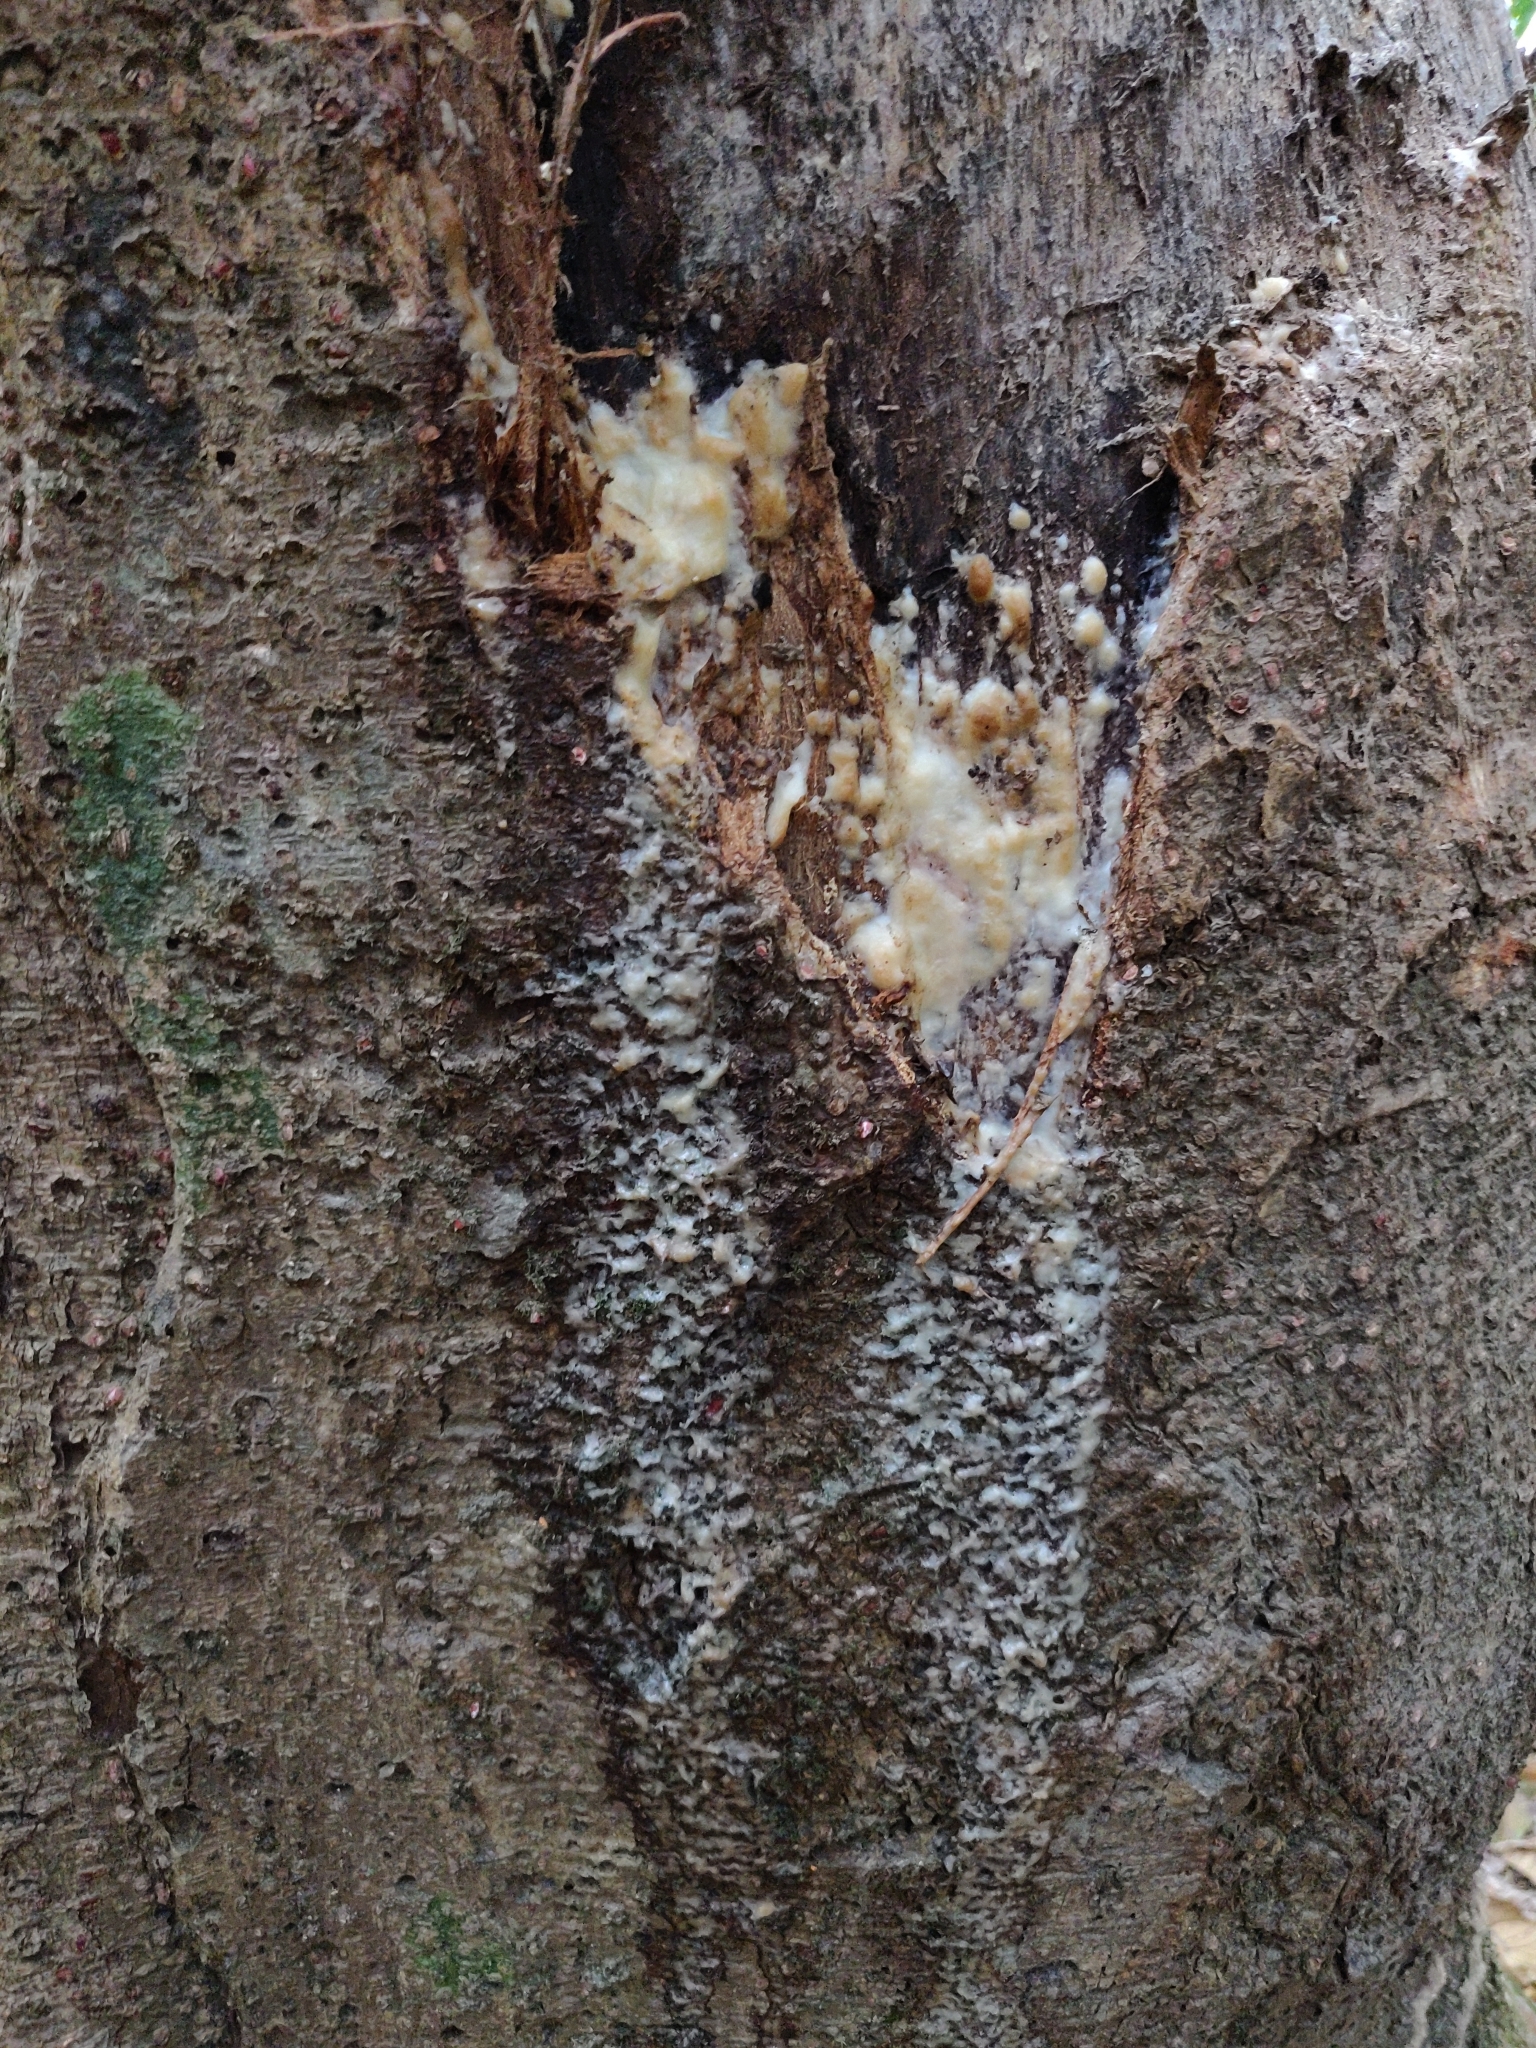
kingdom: Plantae
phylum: Tracheophyta
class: Magnoliopsida
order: Rosales
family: Moraceae
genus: Artocarpus
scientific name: Artocarpus chama
